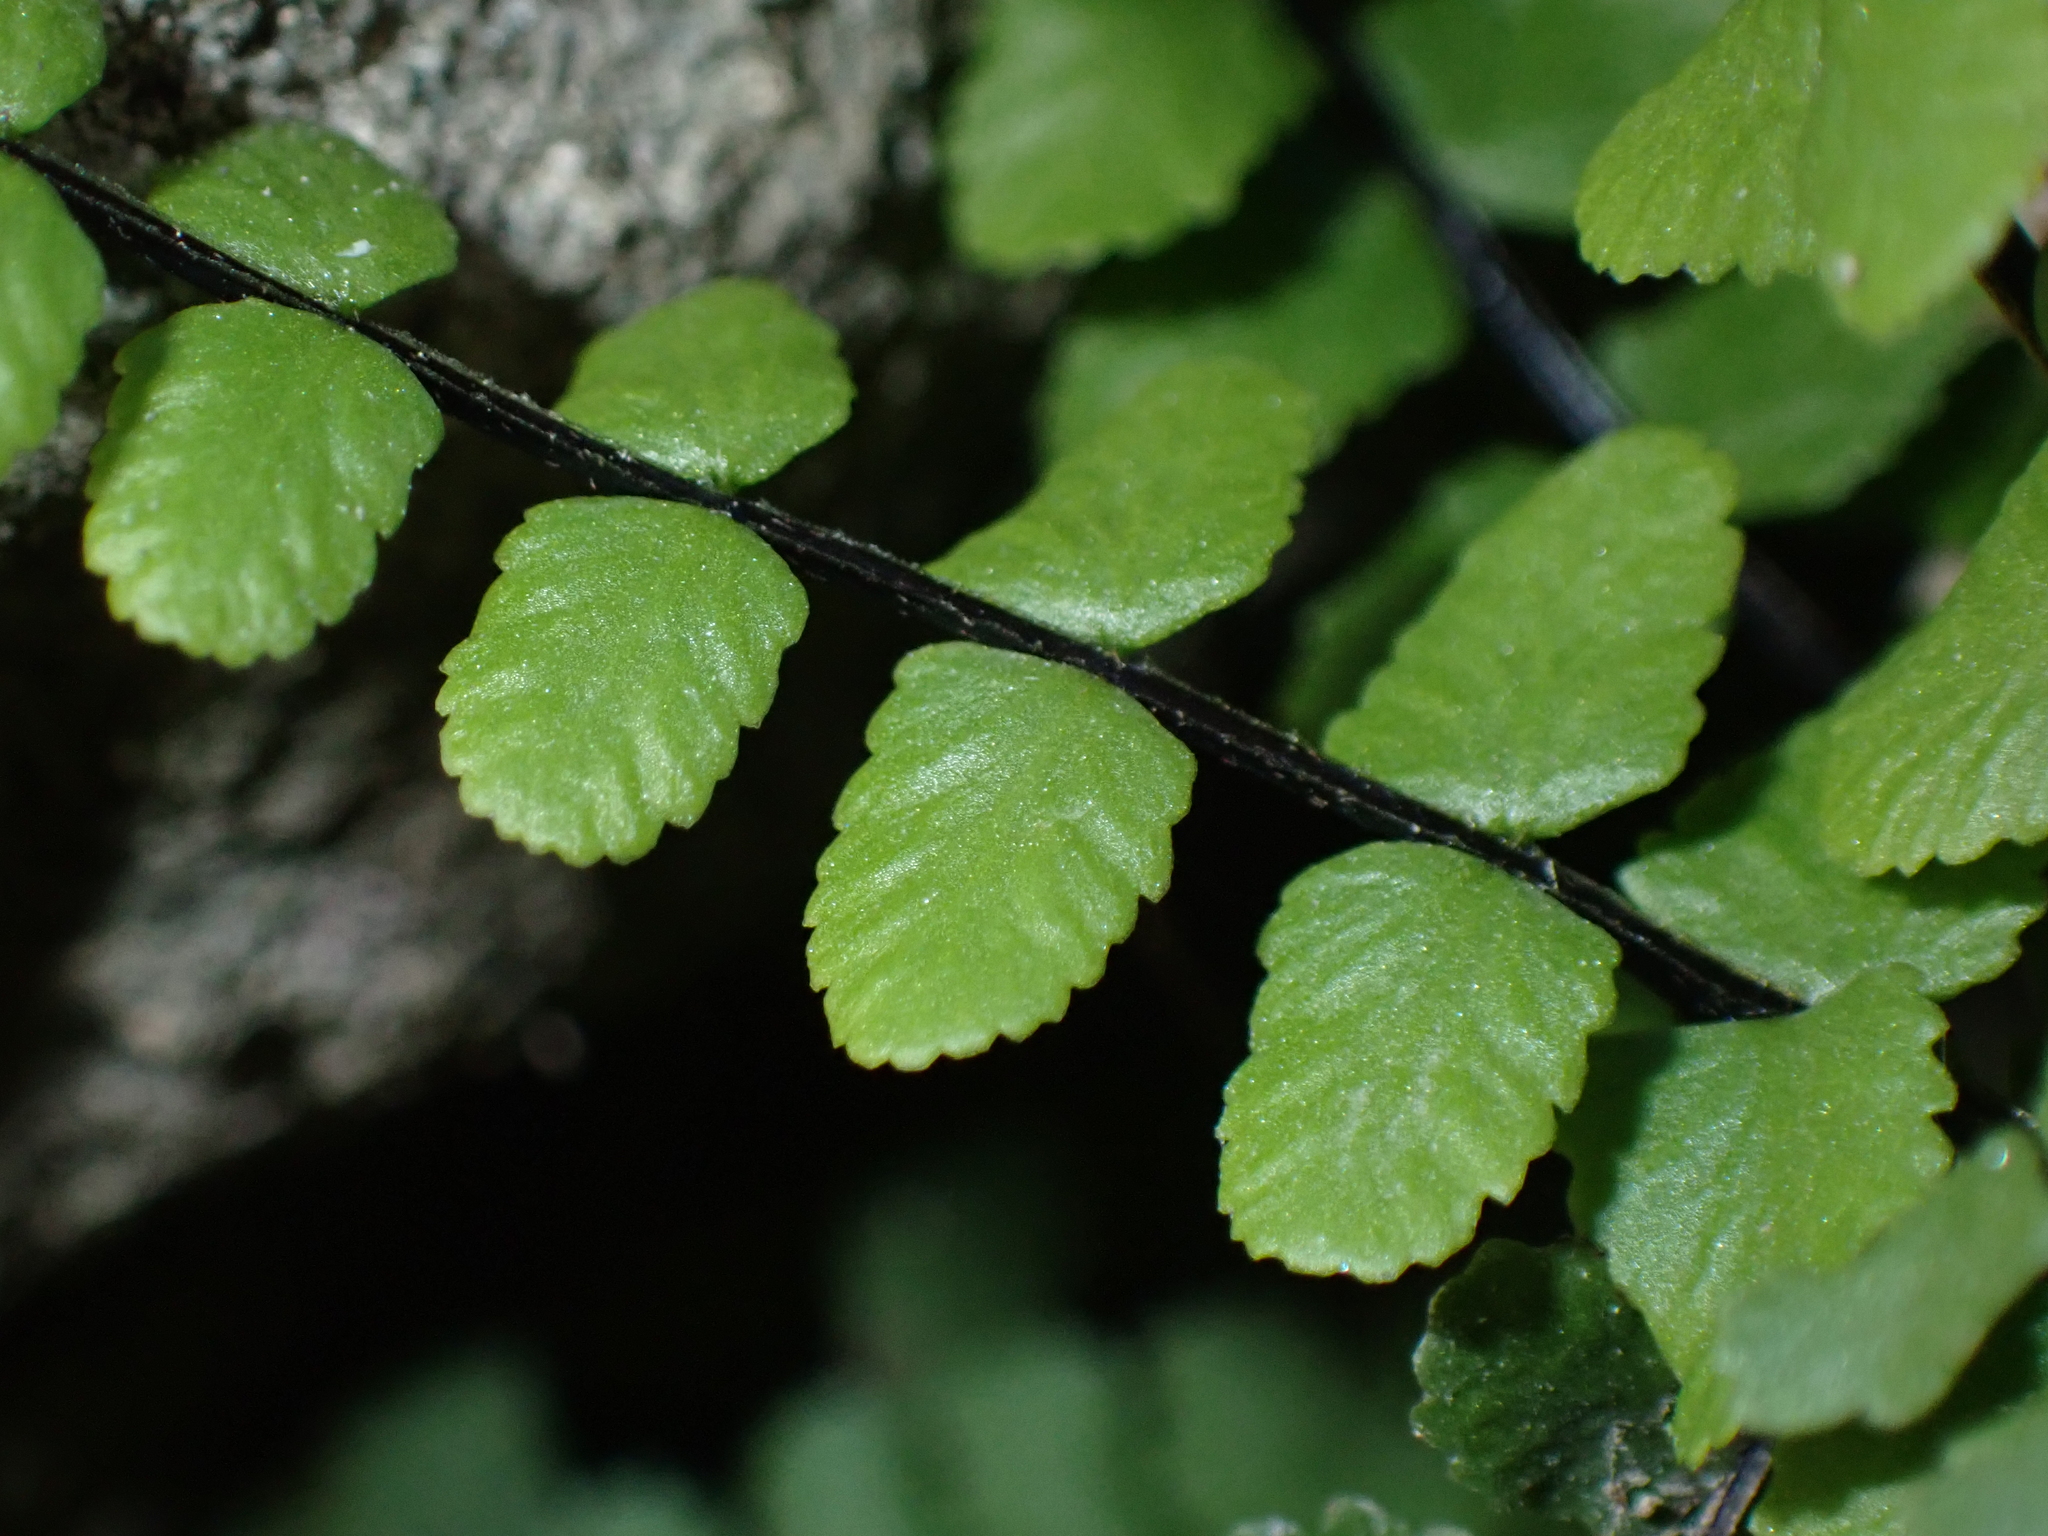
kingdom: Plantae
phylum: Tracheophyta
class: Polypodiopsida
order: Polypodiales
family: Aspleniaceae
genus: Asplenium
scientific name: Asplenium trichomanes
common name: Maidenhair spleenwort
